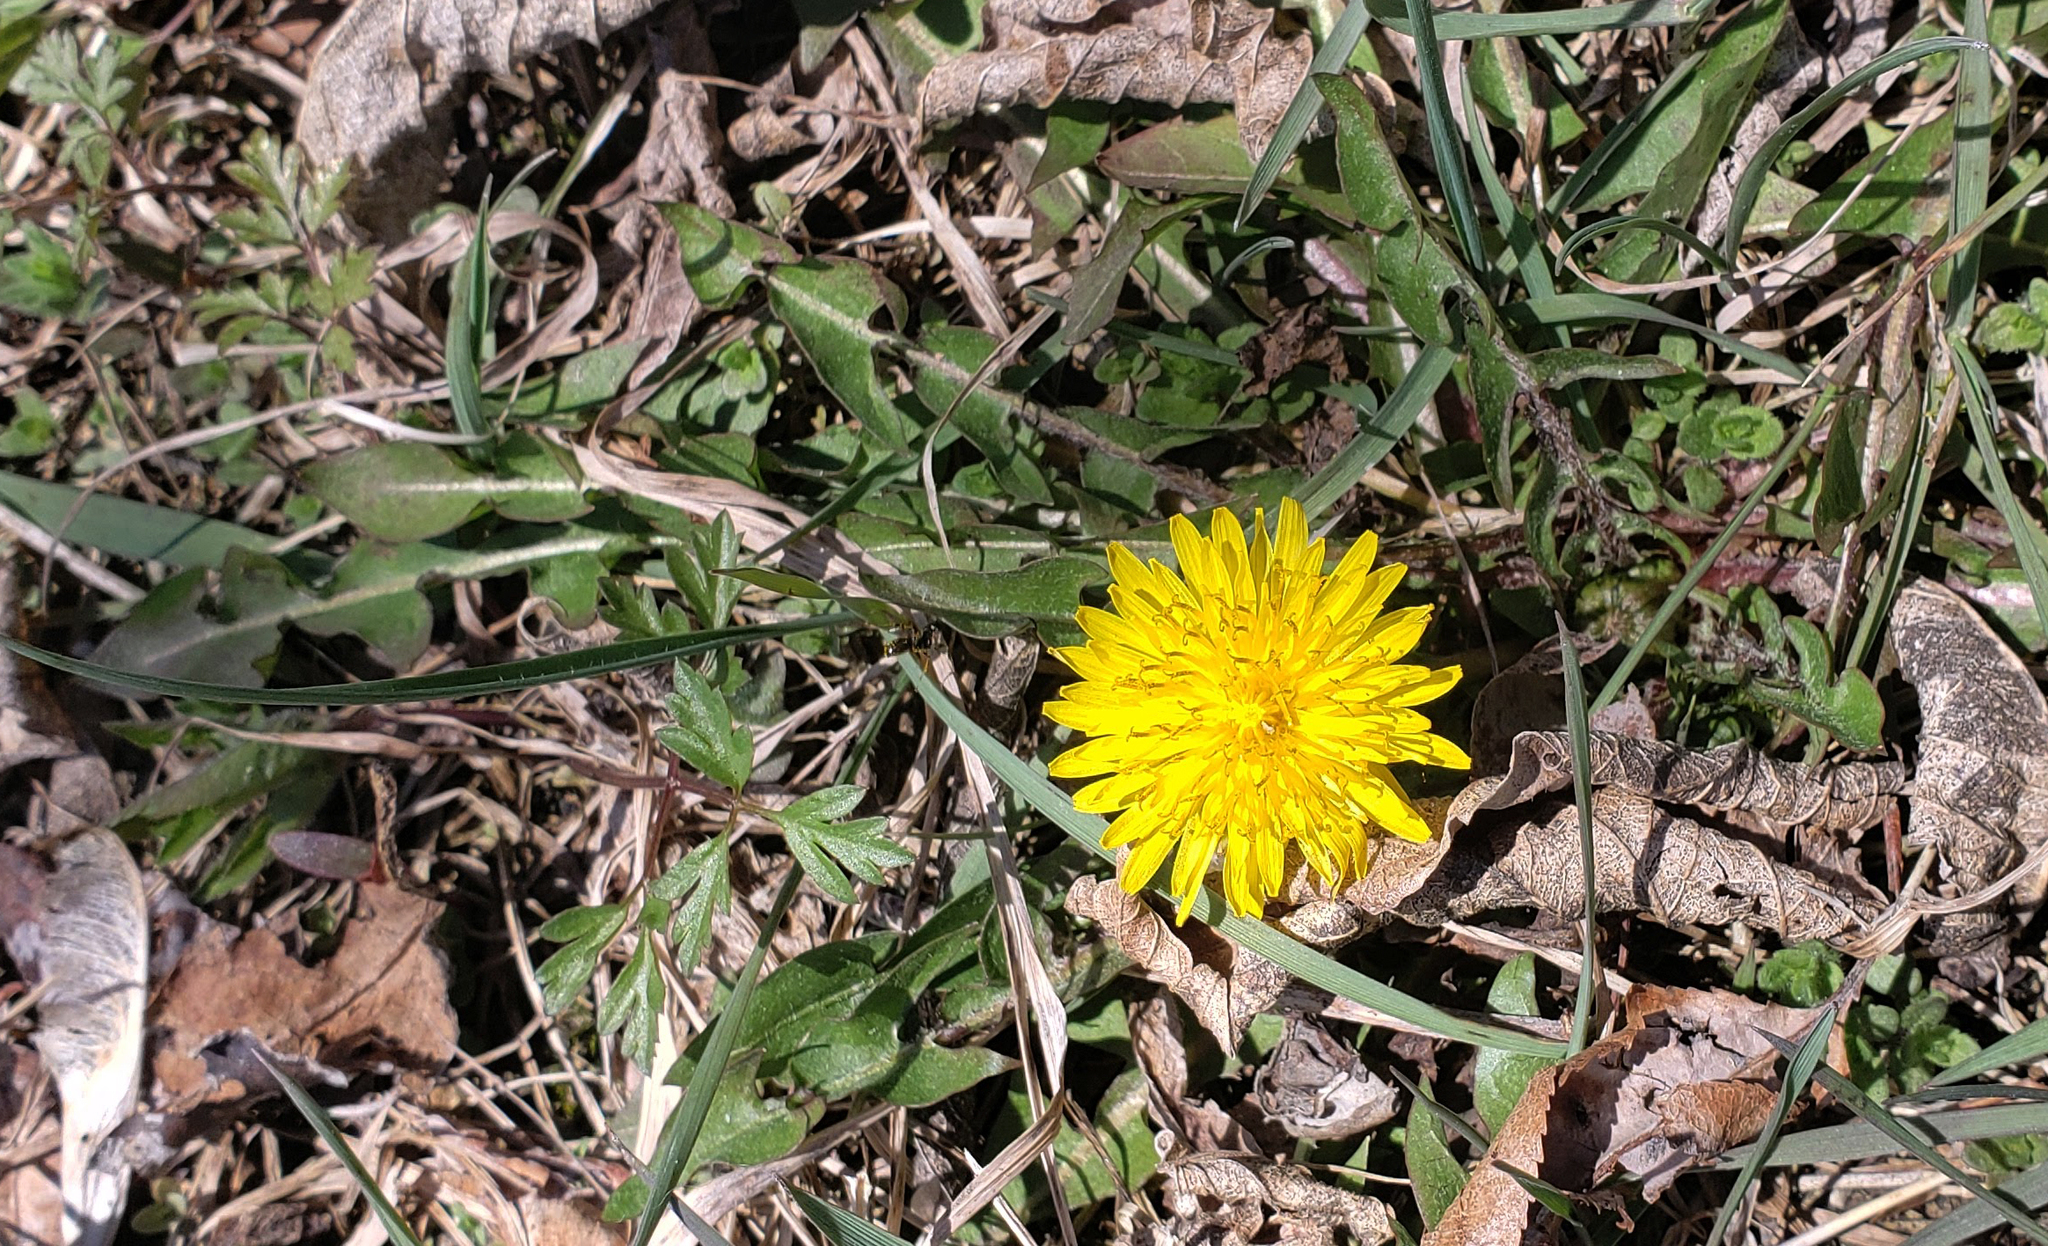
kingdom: Plantae
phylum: Tracheophyta
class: Magnoliopsida
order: Asterales
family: Asteraceae
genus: Taraxacum
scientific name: Taraxacum officinale
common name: Common dandelion
